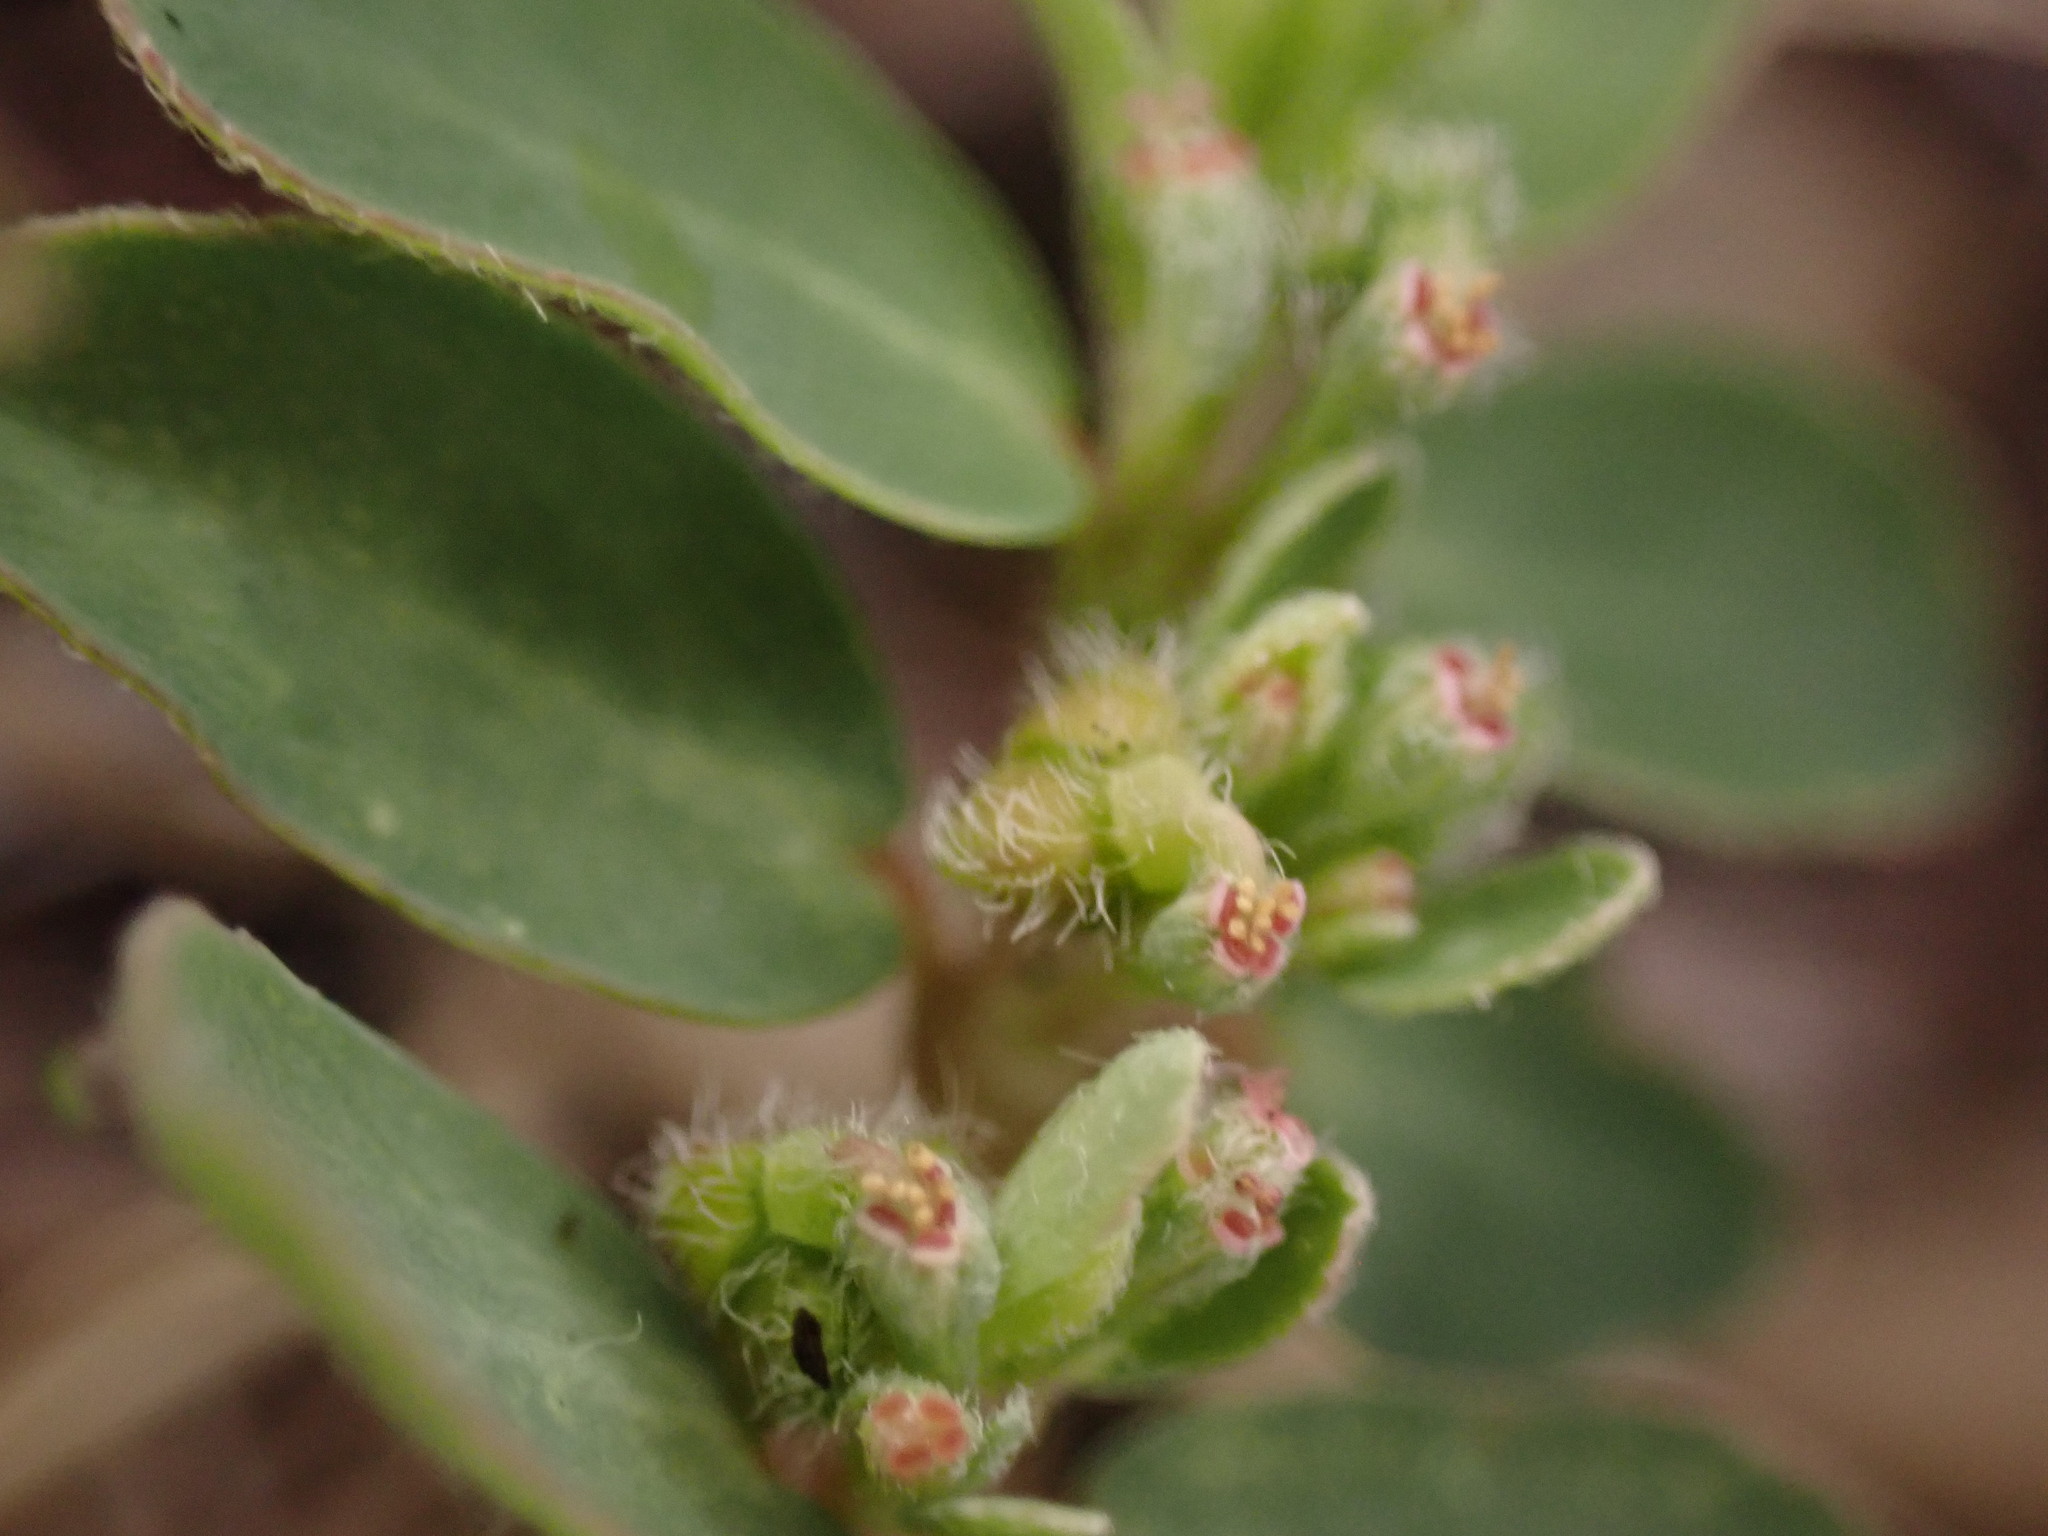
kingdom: Plantae
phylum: Tracheophyta
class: Magnoliopsida
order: Malpighiales
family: Euphorbiaceae
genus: Euphorbia
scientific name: Euphorbia prostrata
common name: Prostrate sandmat
